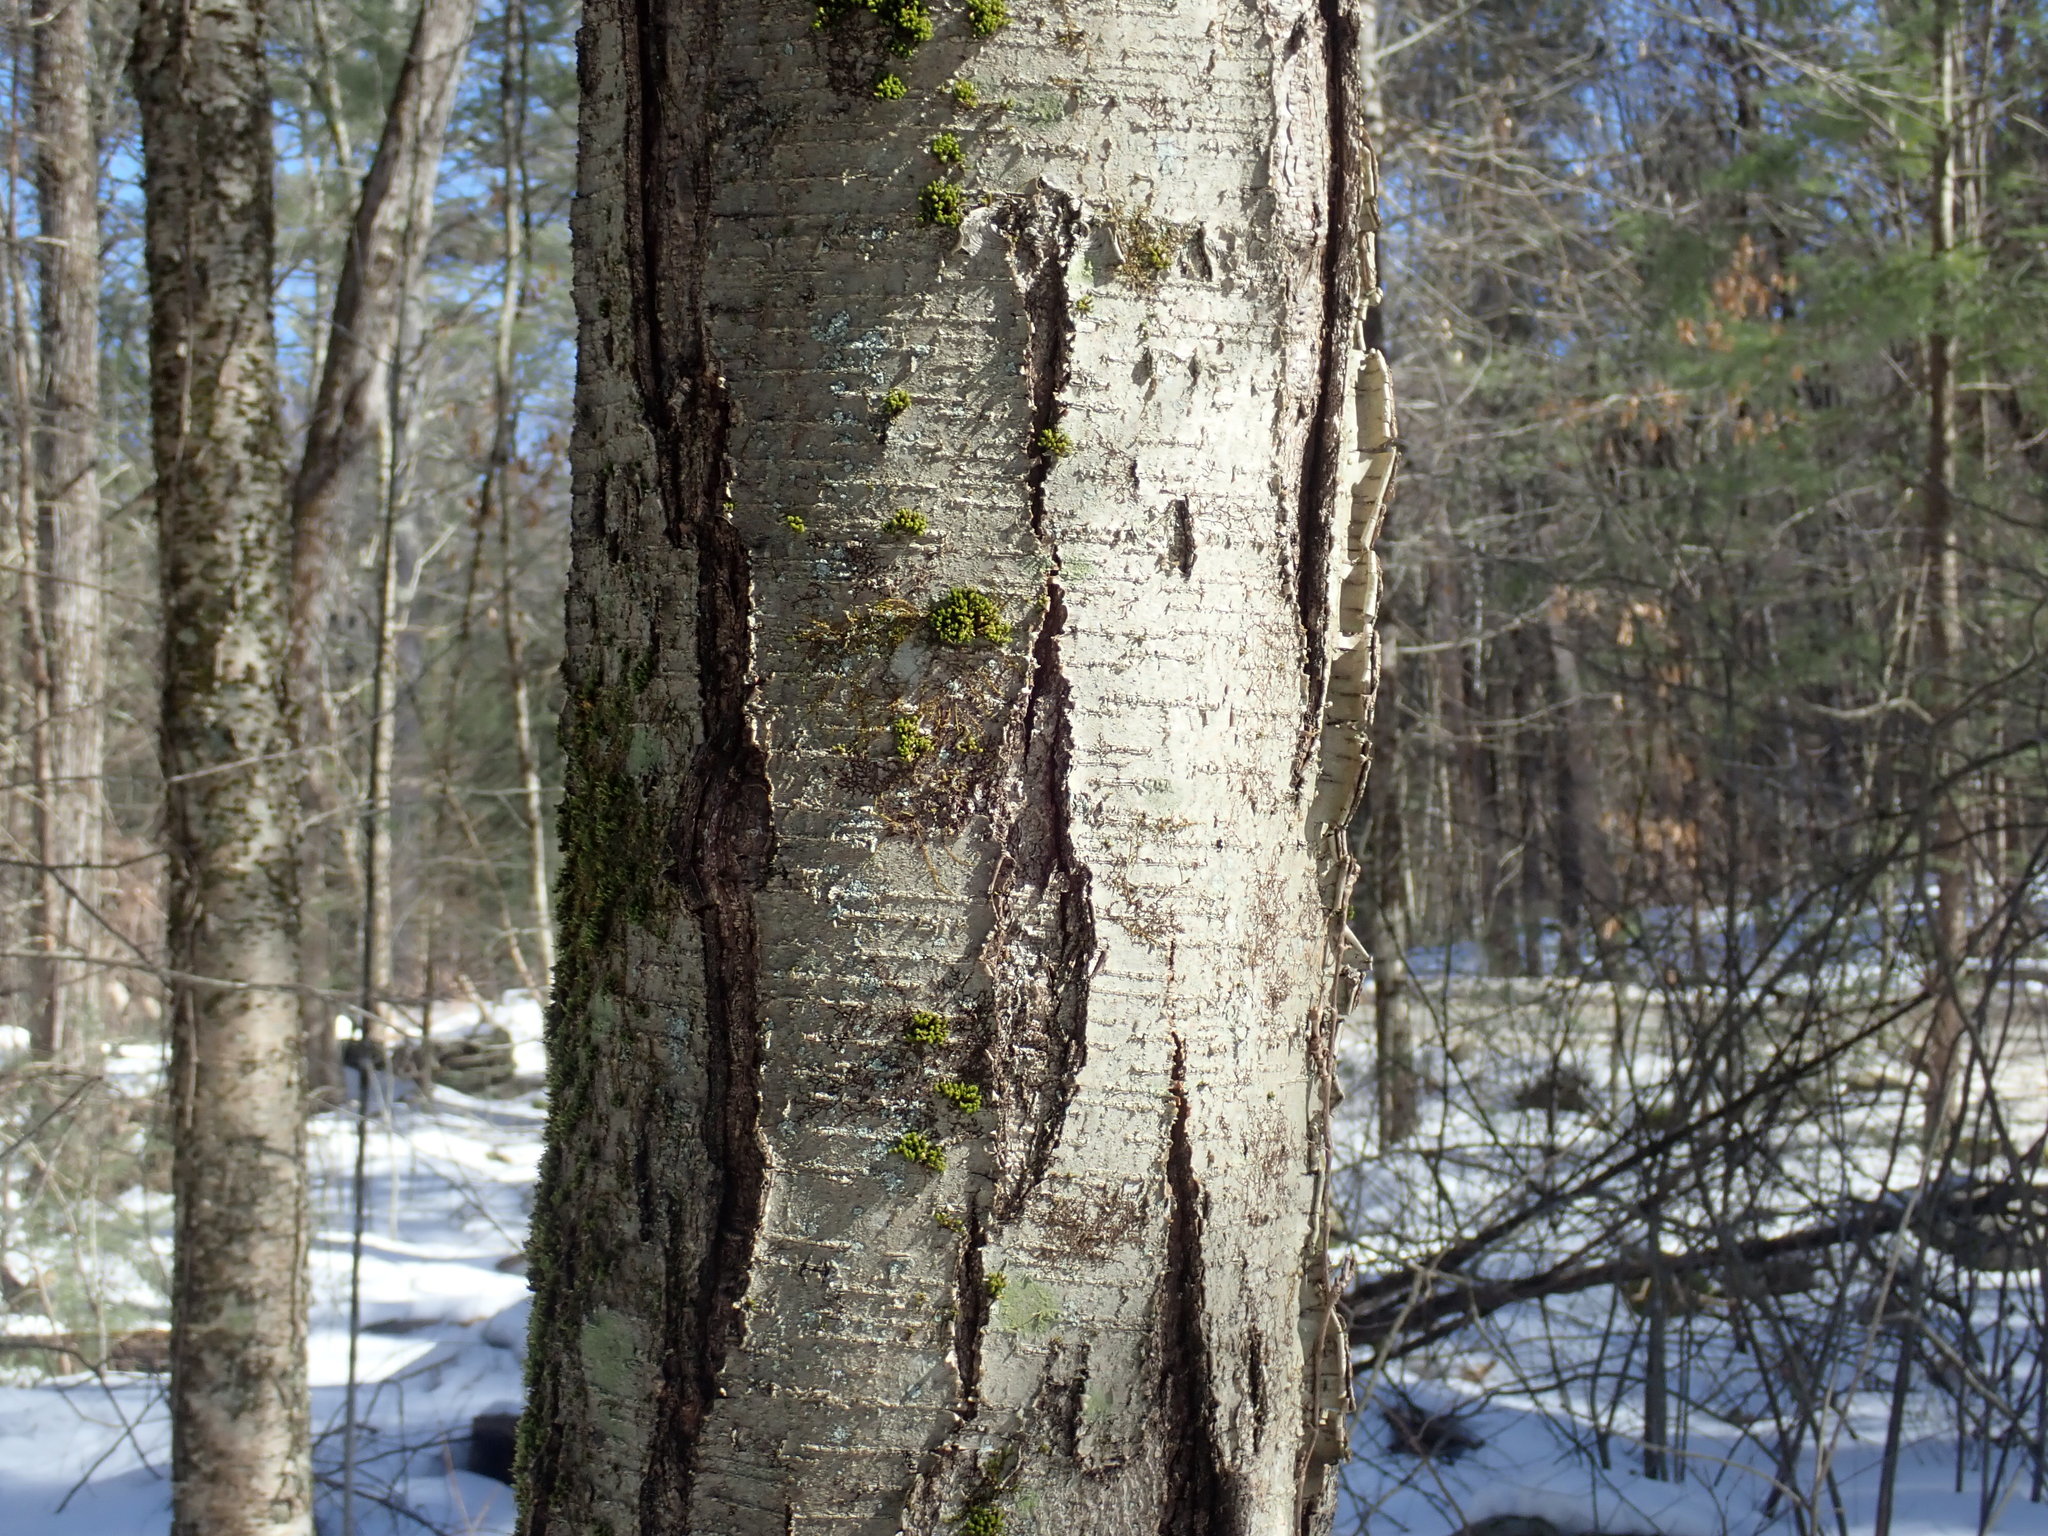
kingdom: Plantae
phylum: Tracheophyta
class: Magnoliopsida
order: Fagales
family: Betulaceae
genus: Betula
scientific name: Betula lenta
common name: Black birch
